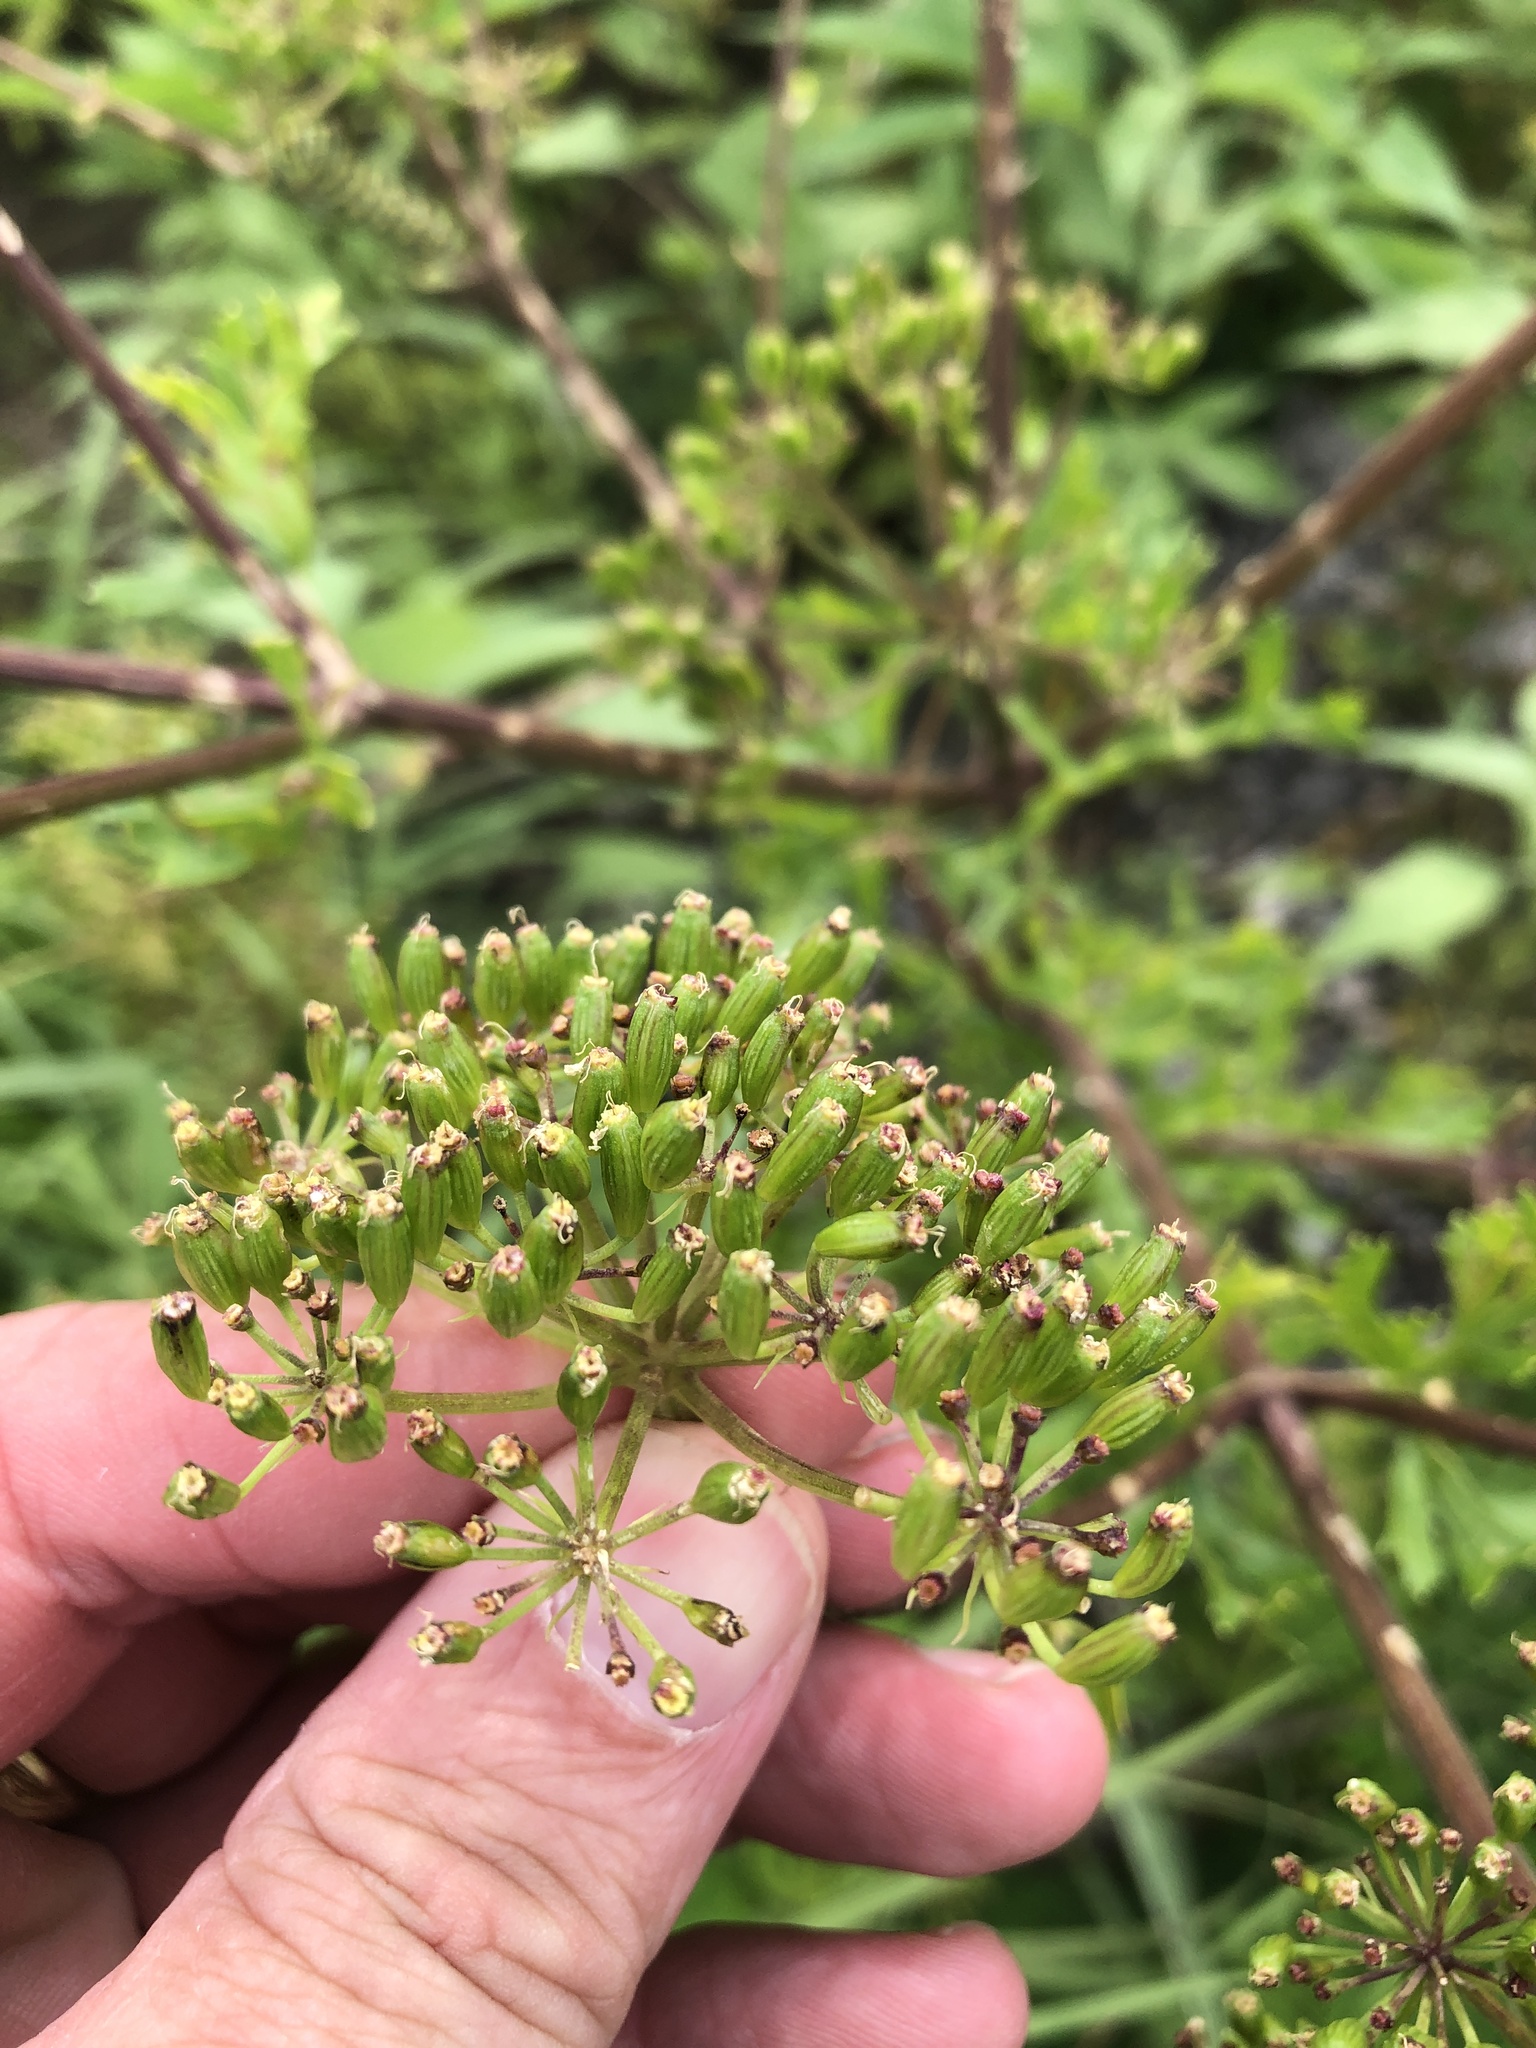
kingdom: Plantae
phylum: Tracheophyta
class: Magnoliopsida
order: Apiales
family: Apiaceae
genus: Polytaenia
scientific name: Polytaenia texana
